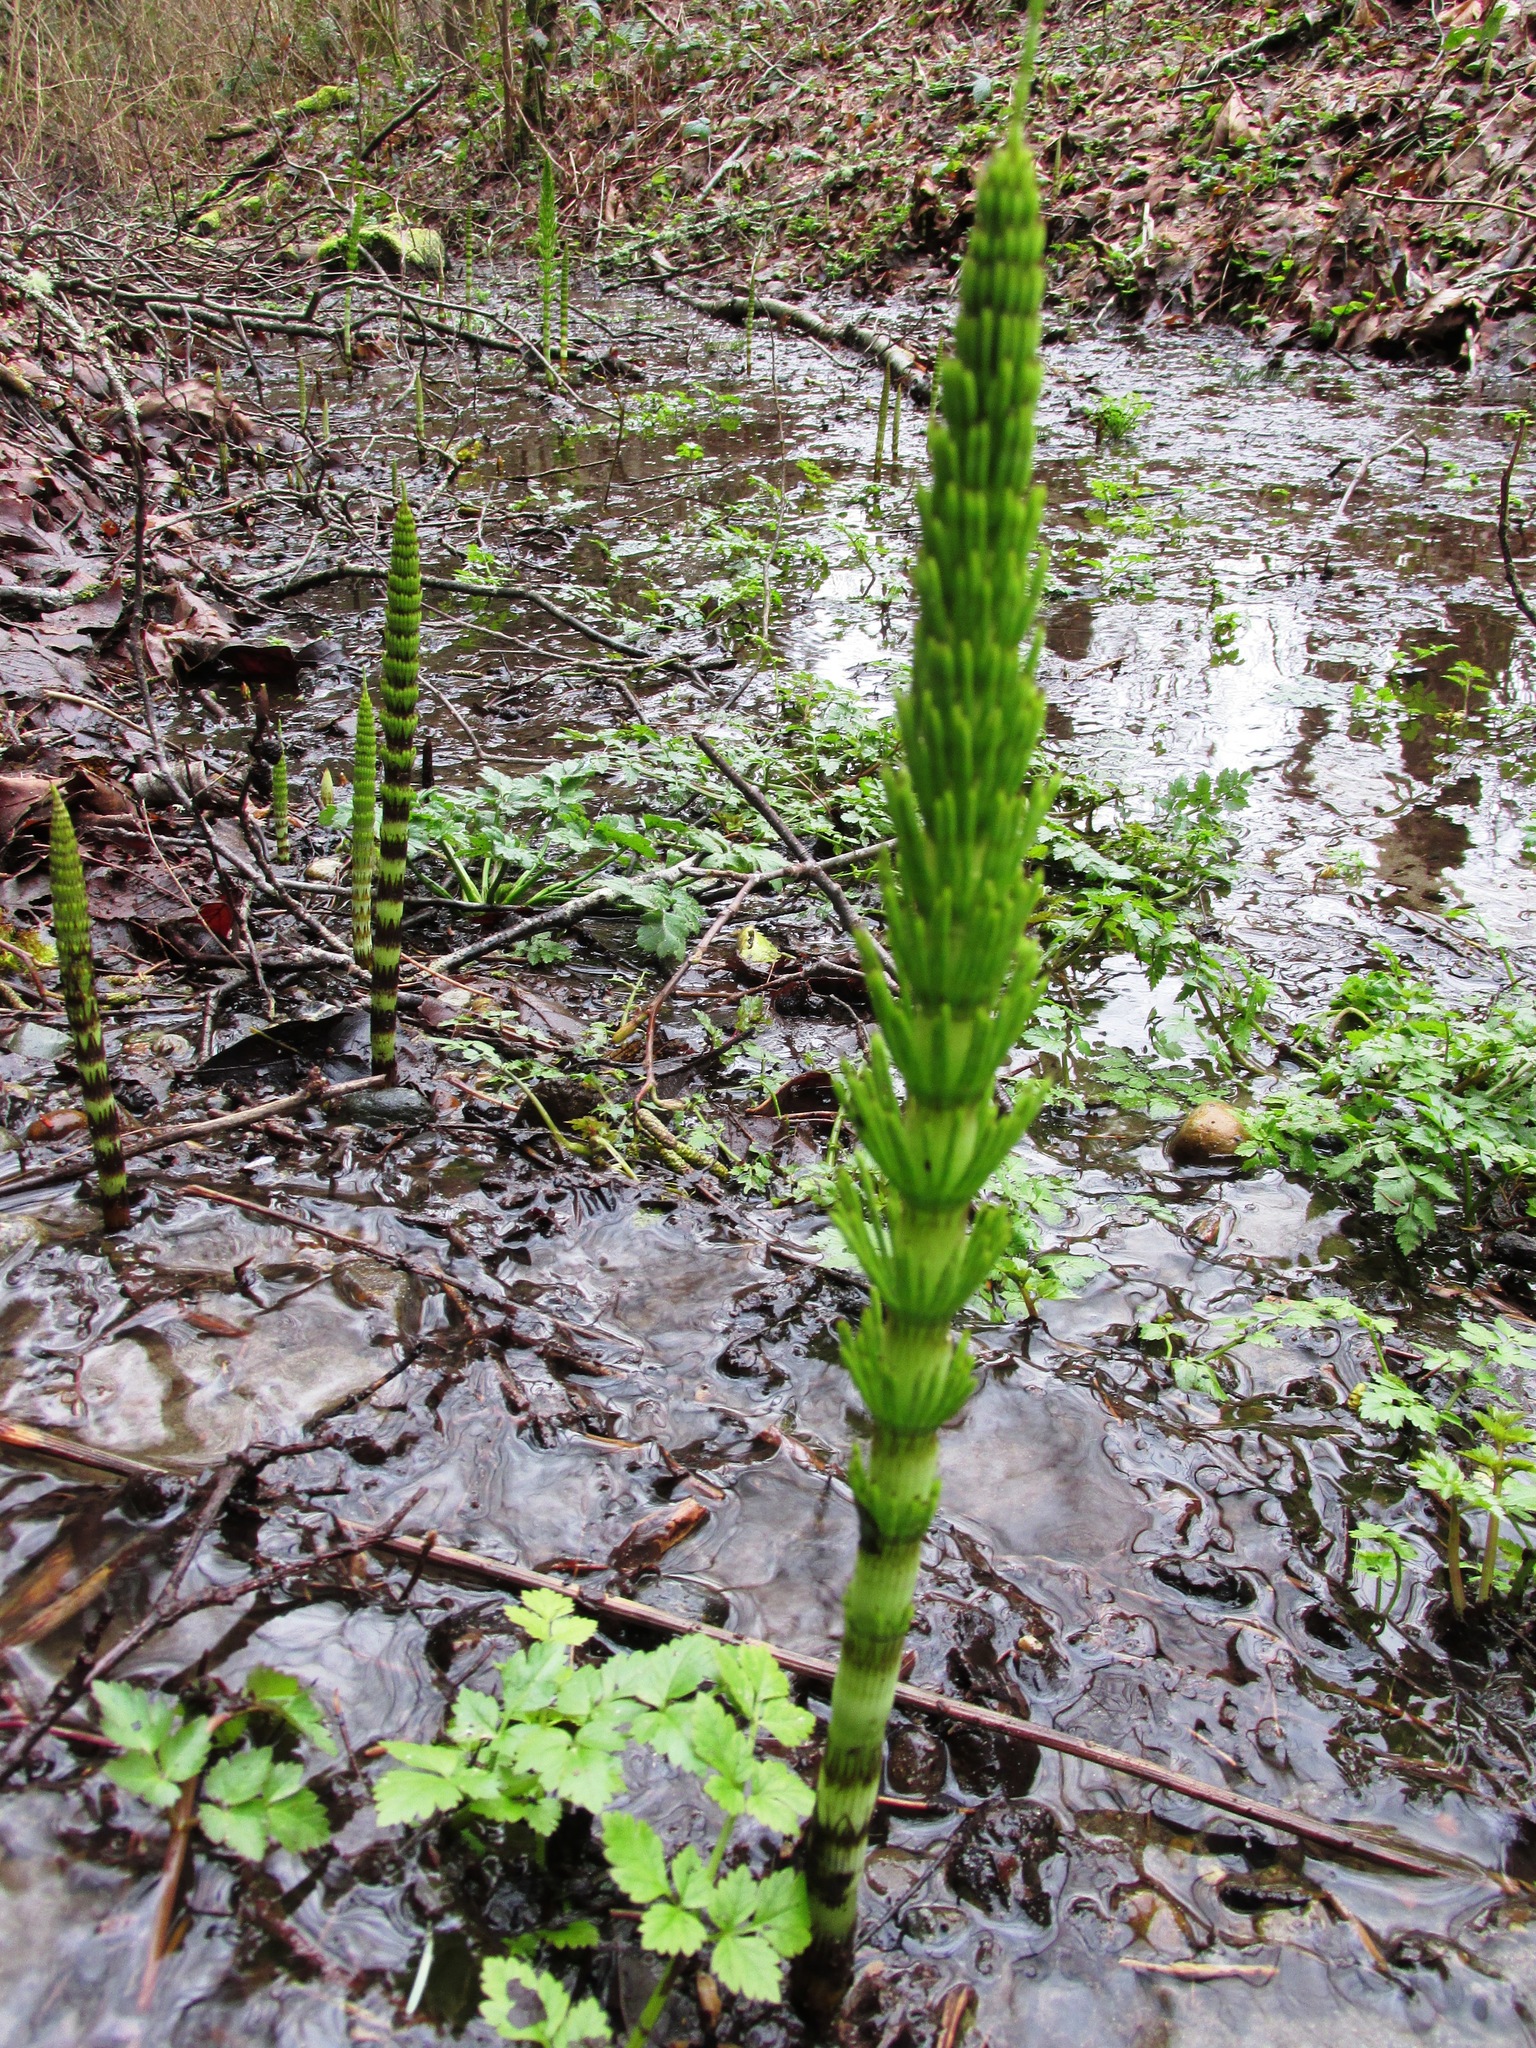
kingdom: Plantae
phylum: Tracheophyta
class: Polypodiopsida
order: Equisetales
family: Equisetaceae
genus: Equisetum
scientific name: Equisetum braunii
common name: Braun's horsetail
